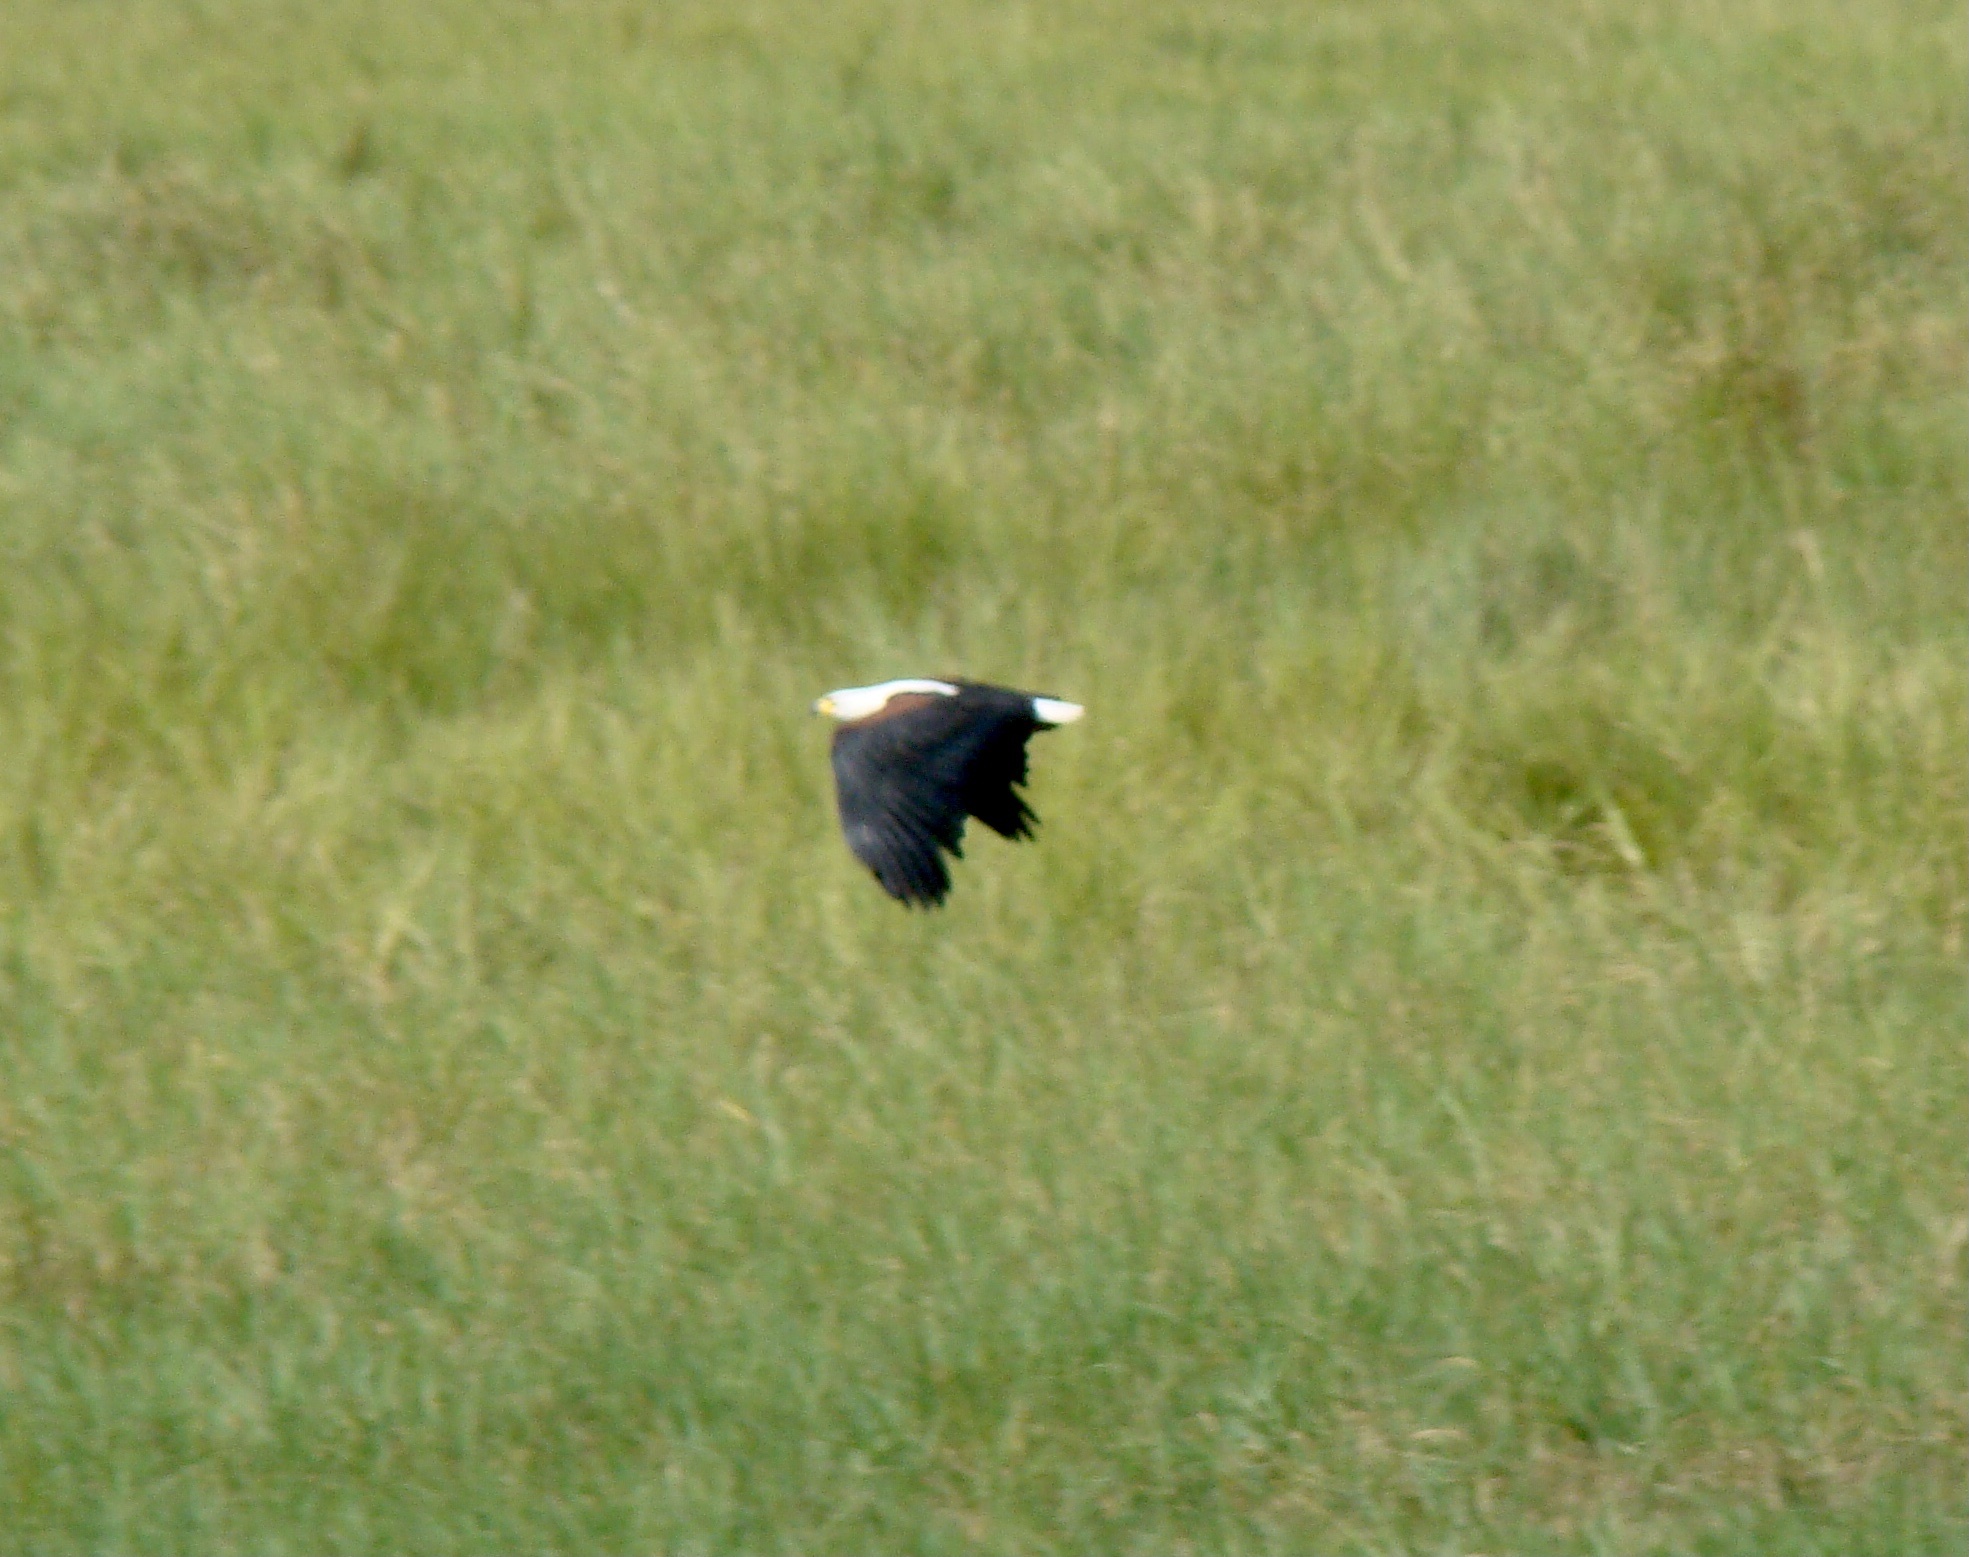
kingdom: Animalia
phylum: Chordata
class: Aves
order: Accipitriformes
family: Accipitridae
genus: Haliaeetus
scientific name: Haliaeetus vocifer
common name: African fish eagle
